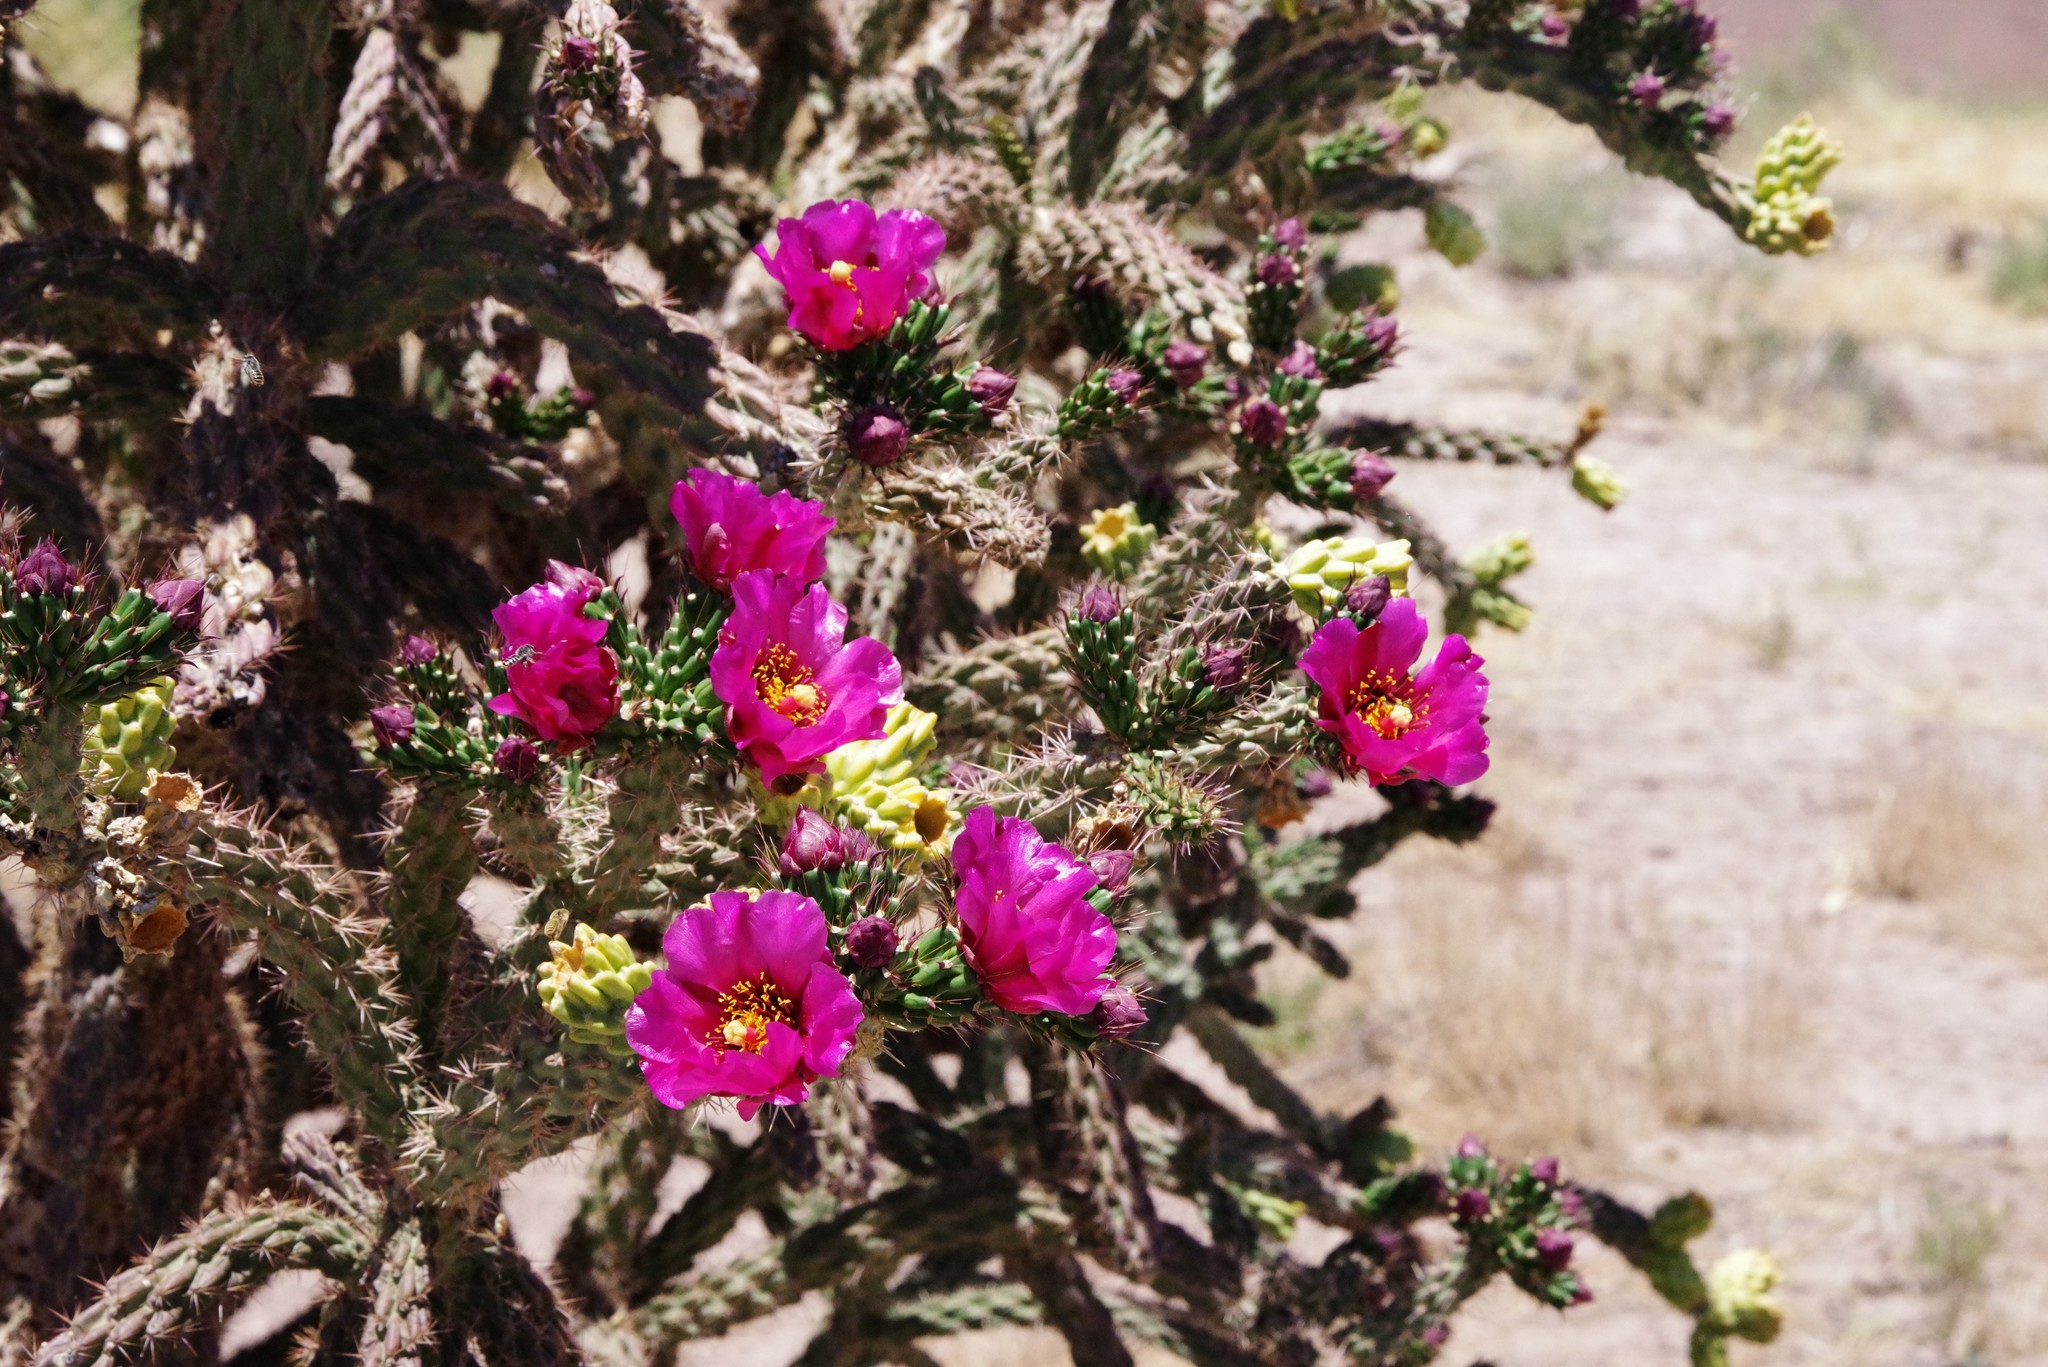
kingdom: Plantae
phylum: Tracheophyta
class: Magnoliopsida
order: Caryophyllales
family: Cactaceae
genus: Cylindropuntia
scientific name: Cylindropuntia imbricata
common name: Candelabrum cactus
